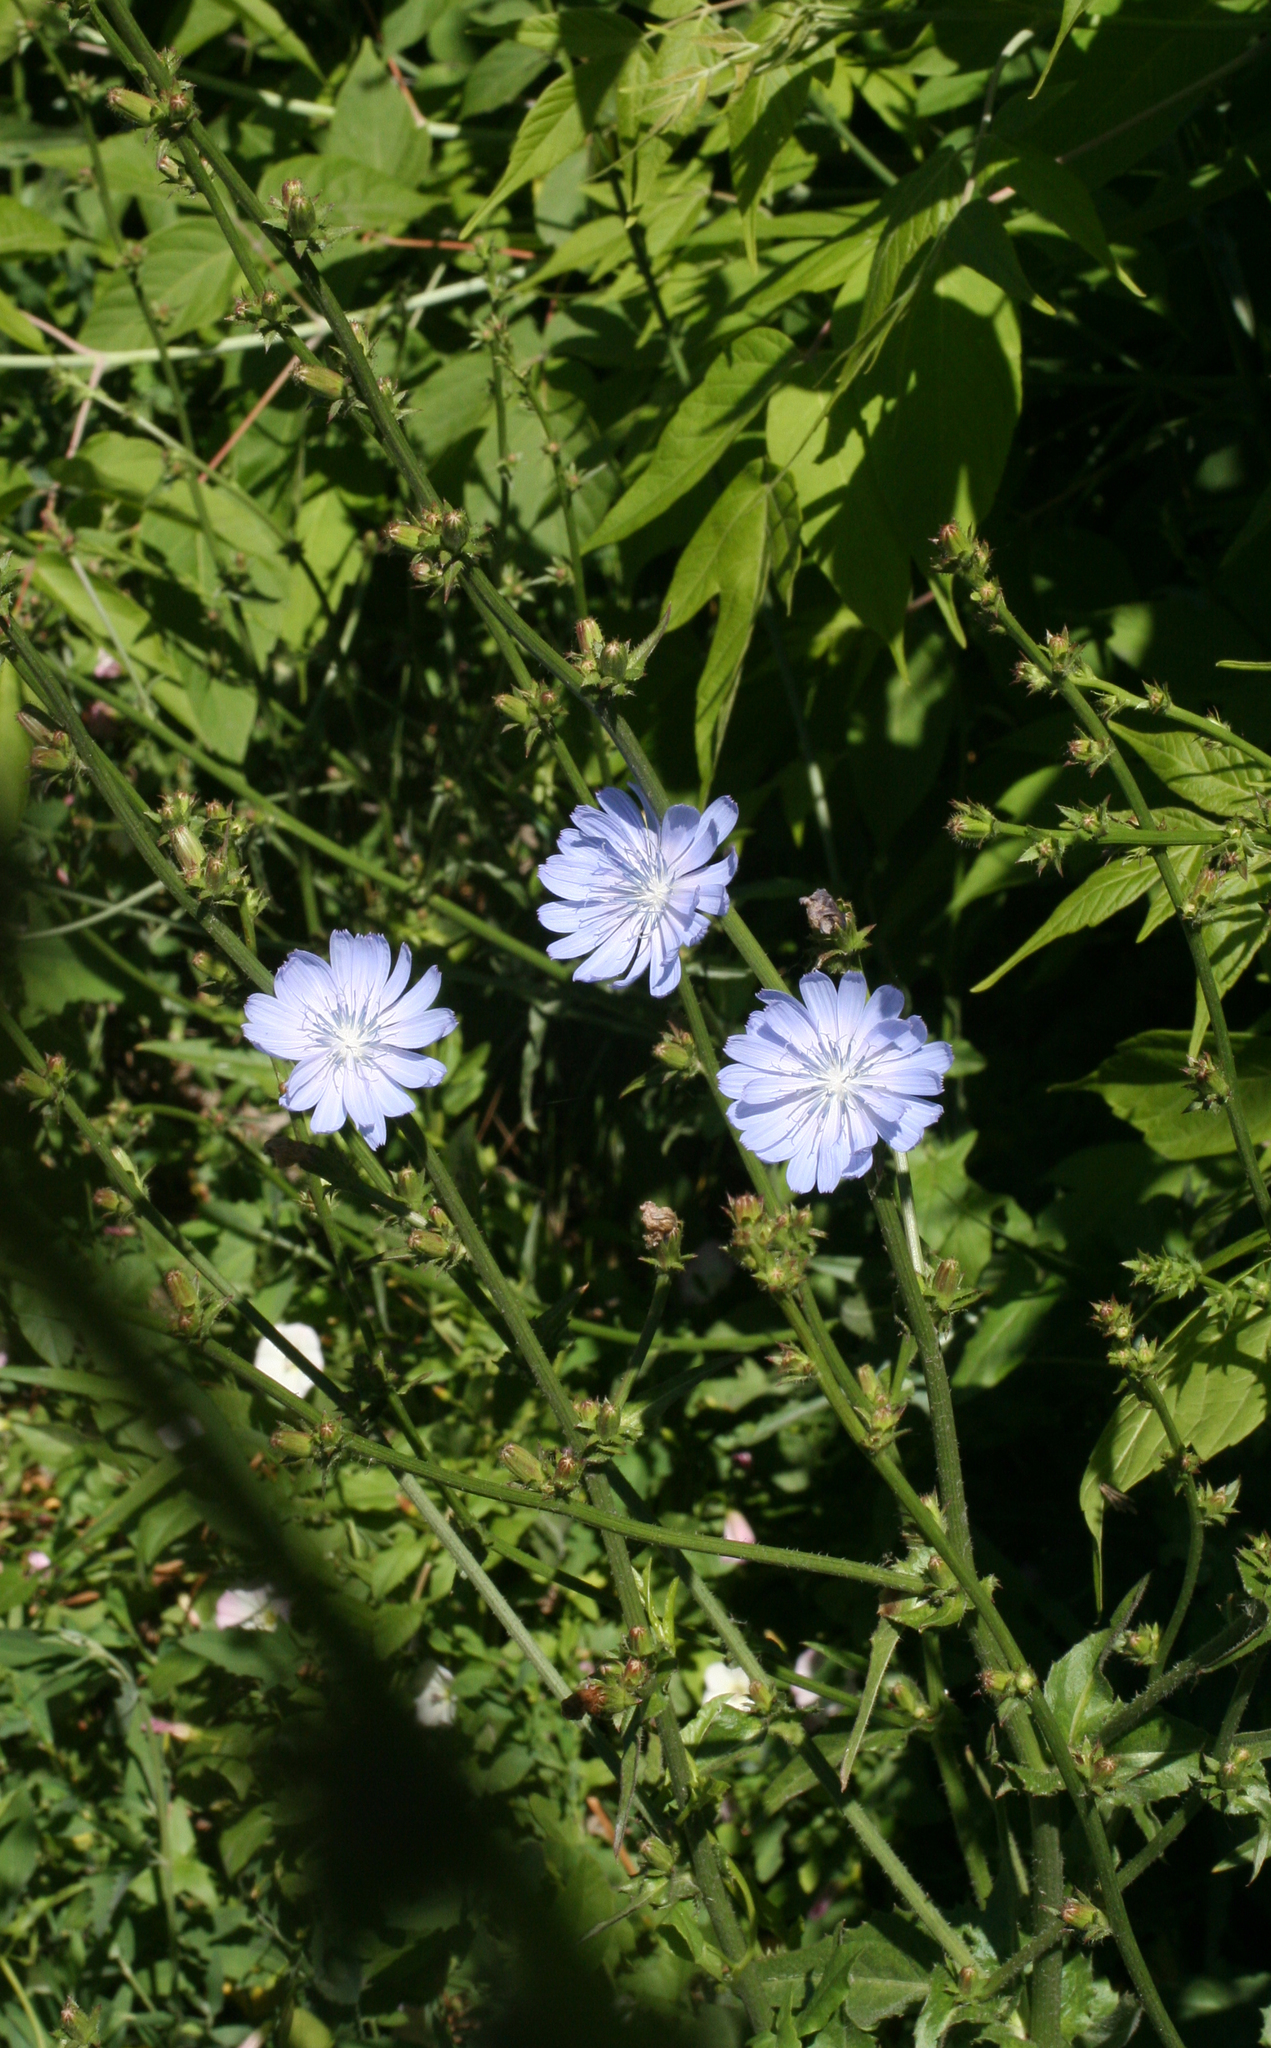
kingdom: Plantae
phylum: Tracheophyta
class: Magnoliopsida
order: Asterales
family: Asteraceae
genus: Cichorium
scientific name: Cichorium intybus
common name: Chicory
